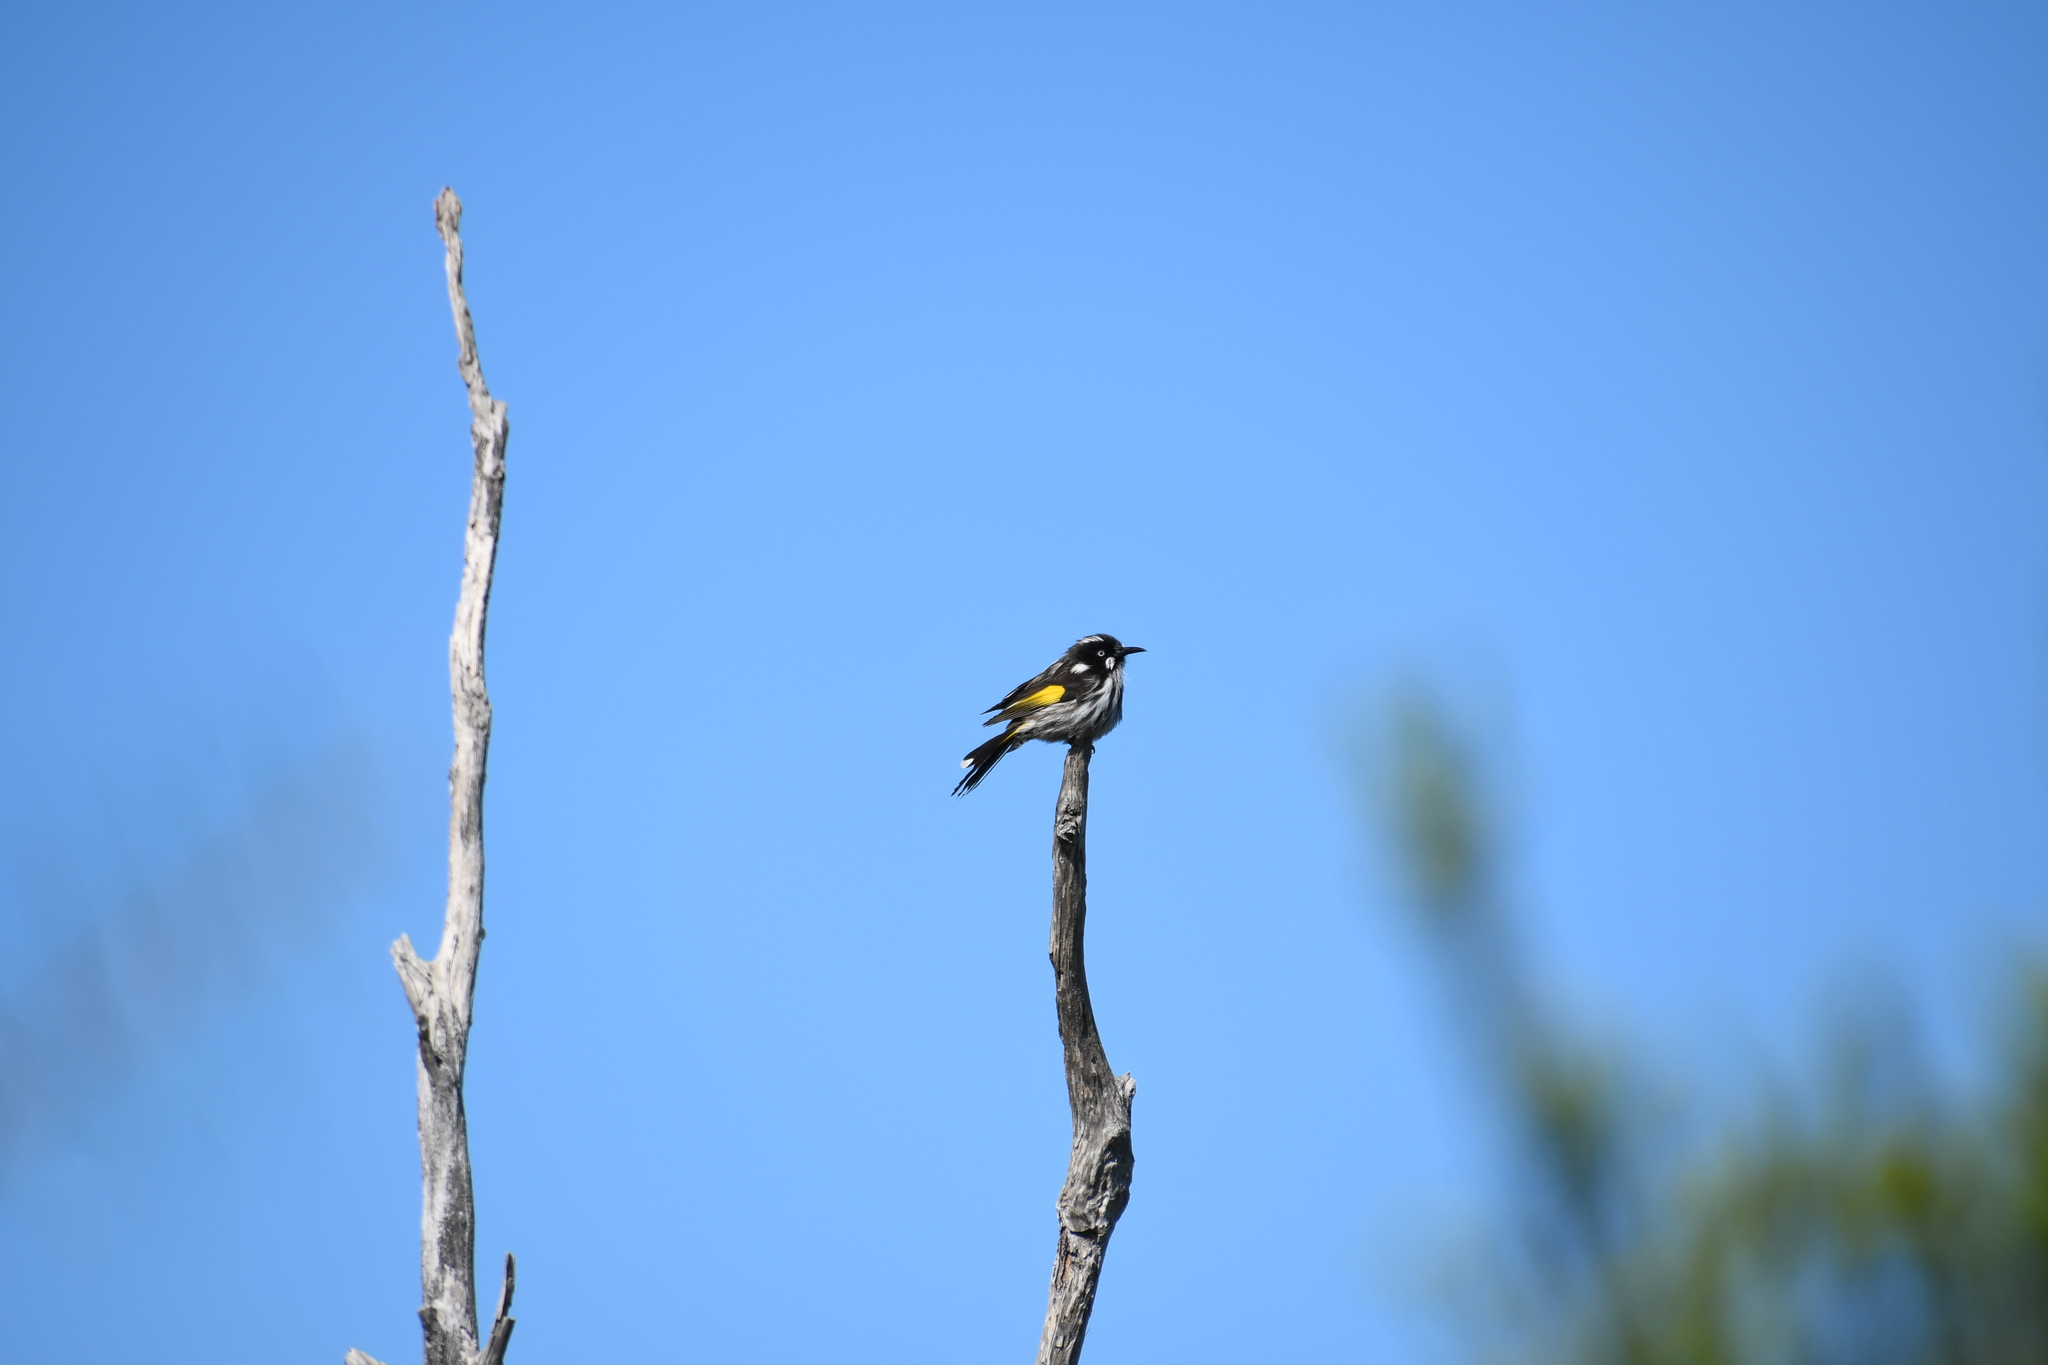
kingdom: Animalia
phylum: Chordata
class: Aves
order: Passeriformes
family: Meliphagidae
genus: Phylidonyris
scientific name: Phylidonyris novaehollandiae
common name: New holland honeyeater
